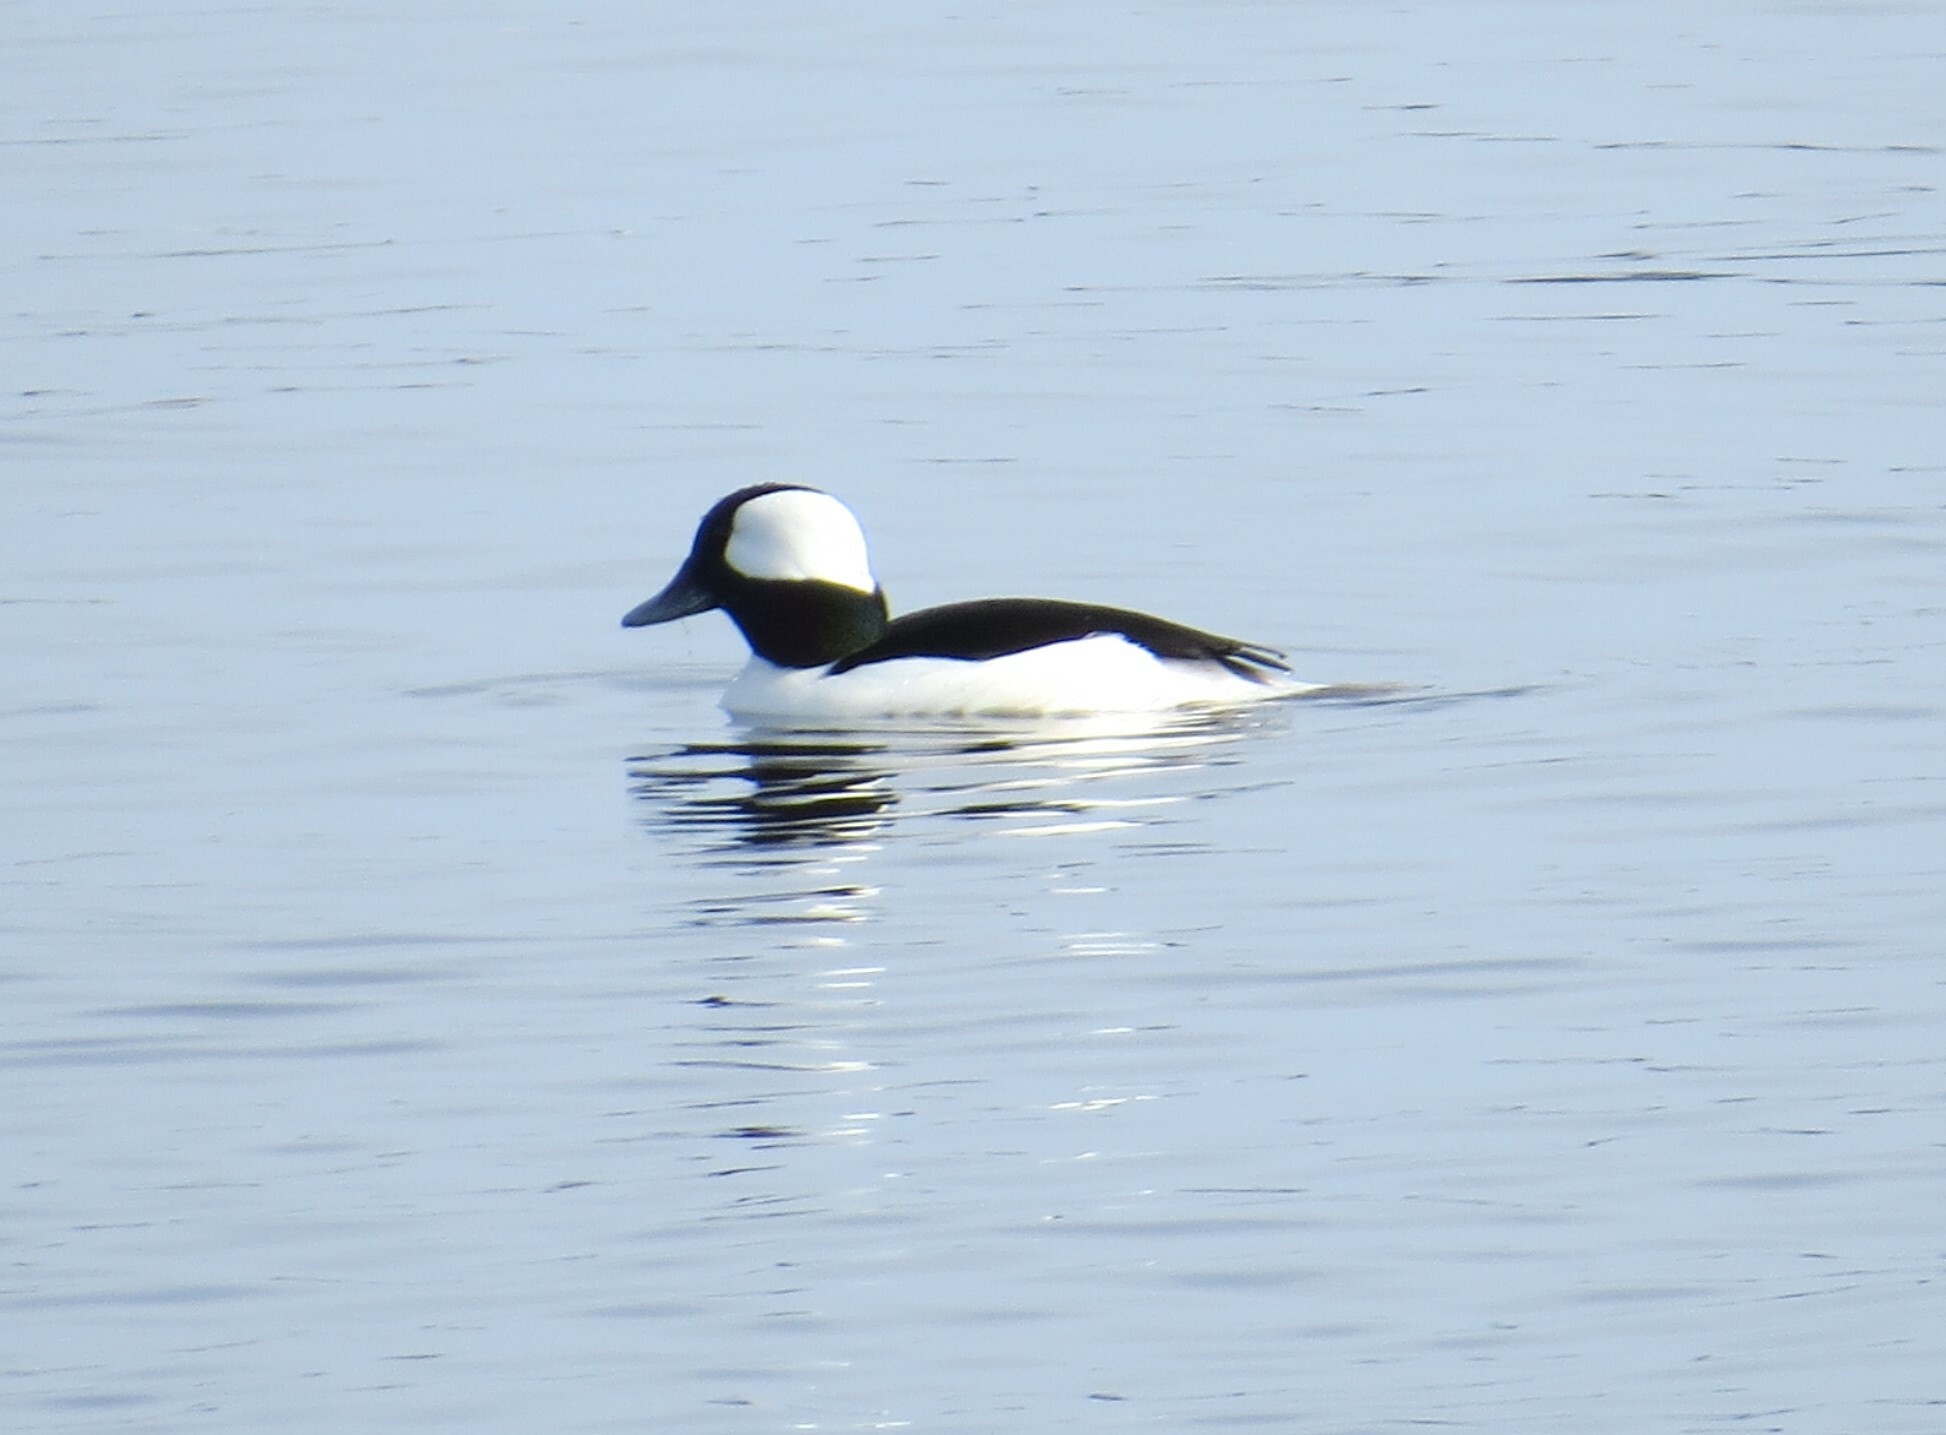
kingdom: Animalia
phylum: Chordata
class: Aves
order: Anseriformes
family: Anatidae
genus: Bucephala
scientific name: Bucephala albeola
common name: Bufflehead
